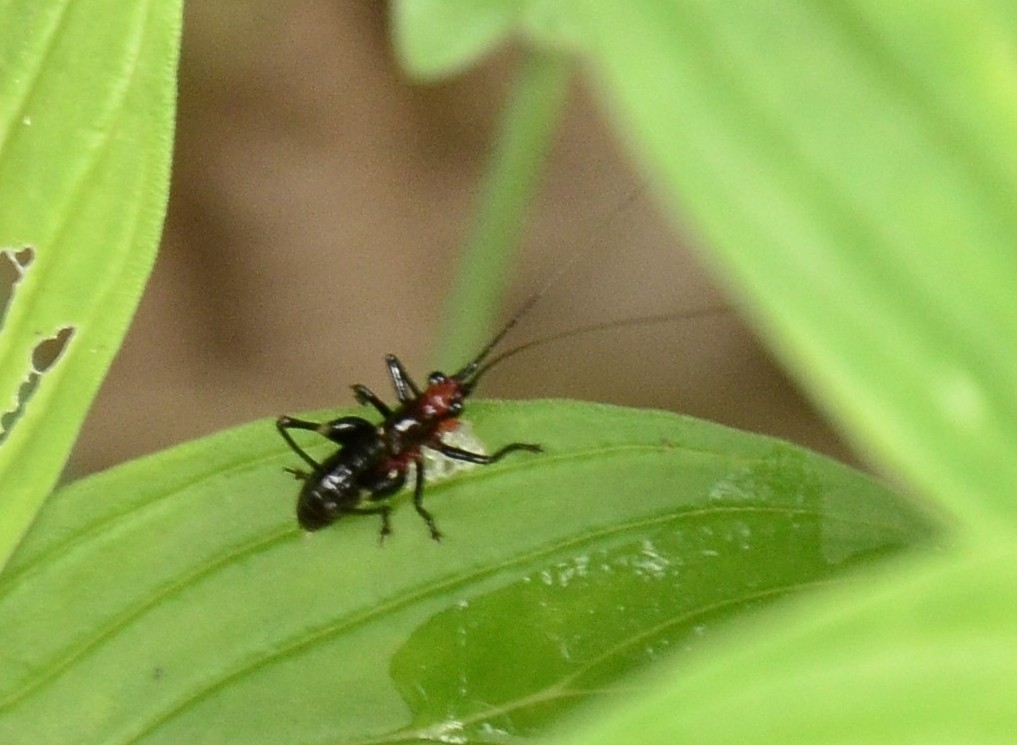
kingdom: Animalia
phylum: Arthropoda
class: Insecta
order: Orthoptera
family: Tettigoniidae
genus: Conocephalus
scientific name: Conocephalus melaenus
